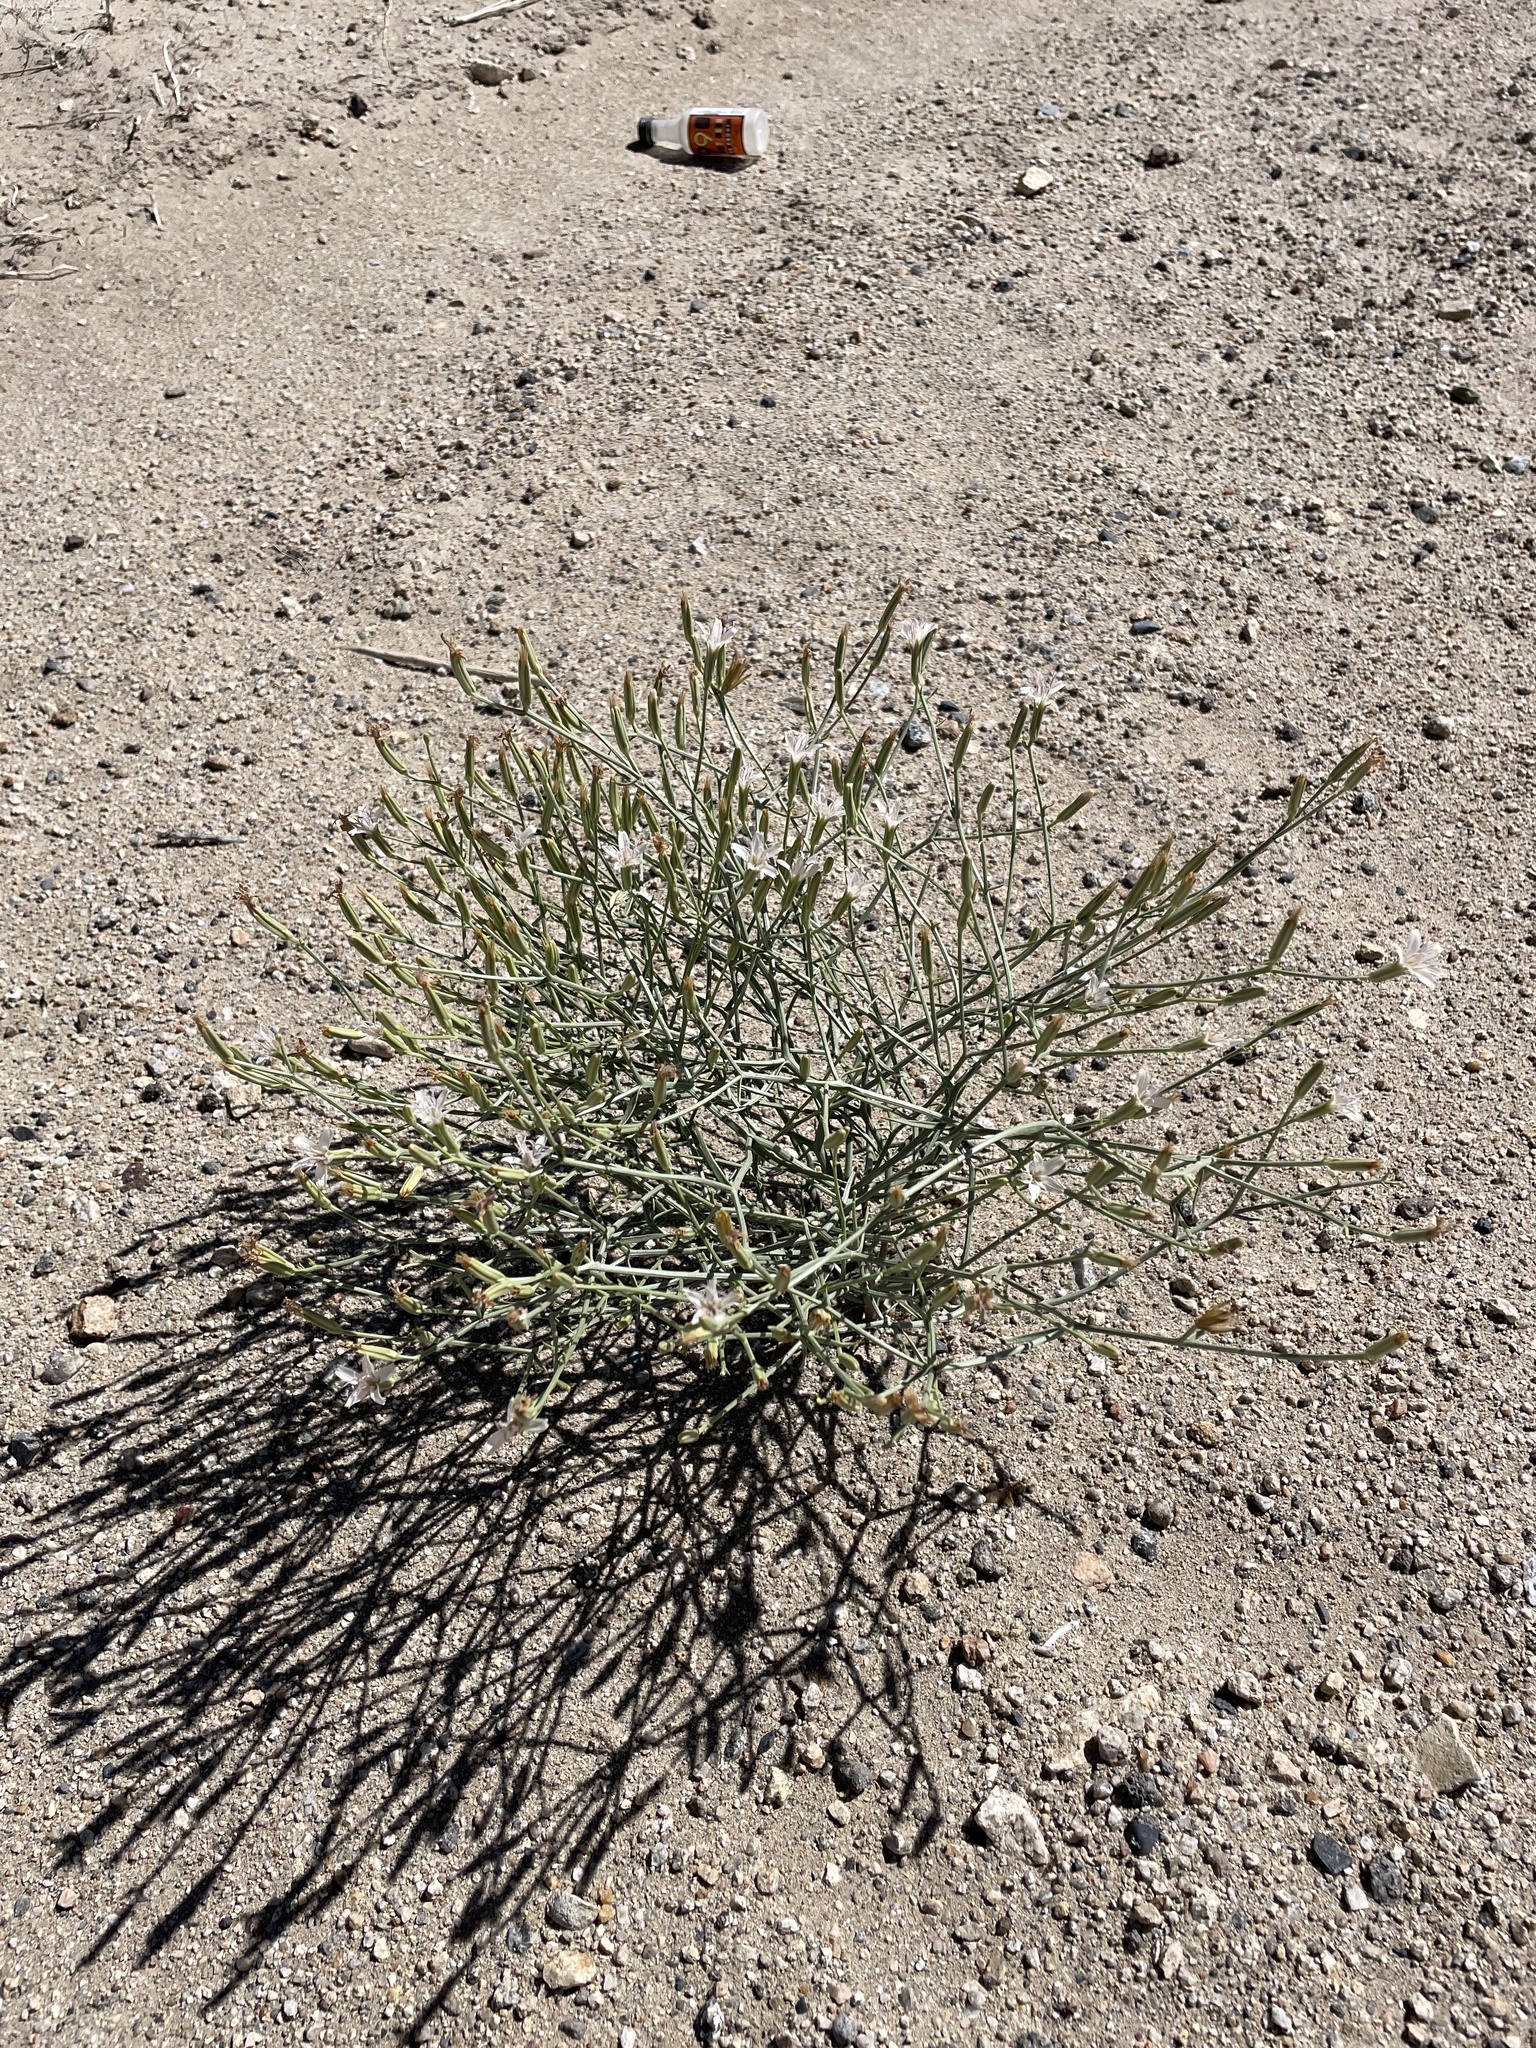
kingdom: Plantae
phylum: Tracheophyta
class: Magnoliopsida
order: Asterales
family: Asteraceae
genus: Chaetadelpha
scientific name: Chaetadelpha wheeleri
